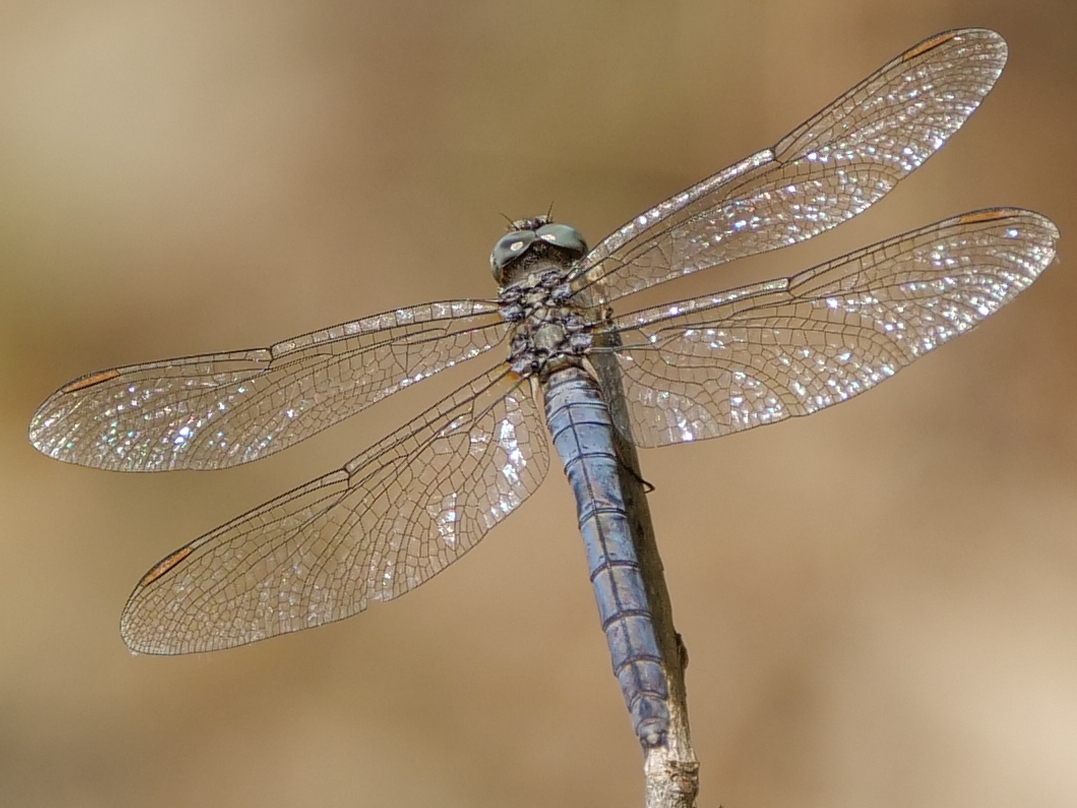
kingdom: Animalia
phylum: Arthropoda
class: Insecta
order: Odonata
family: Libellulidae
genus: Orthetrum
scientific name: Orthetrum coerulescens
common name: Keeled skimmer
